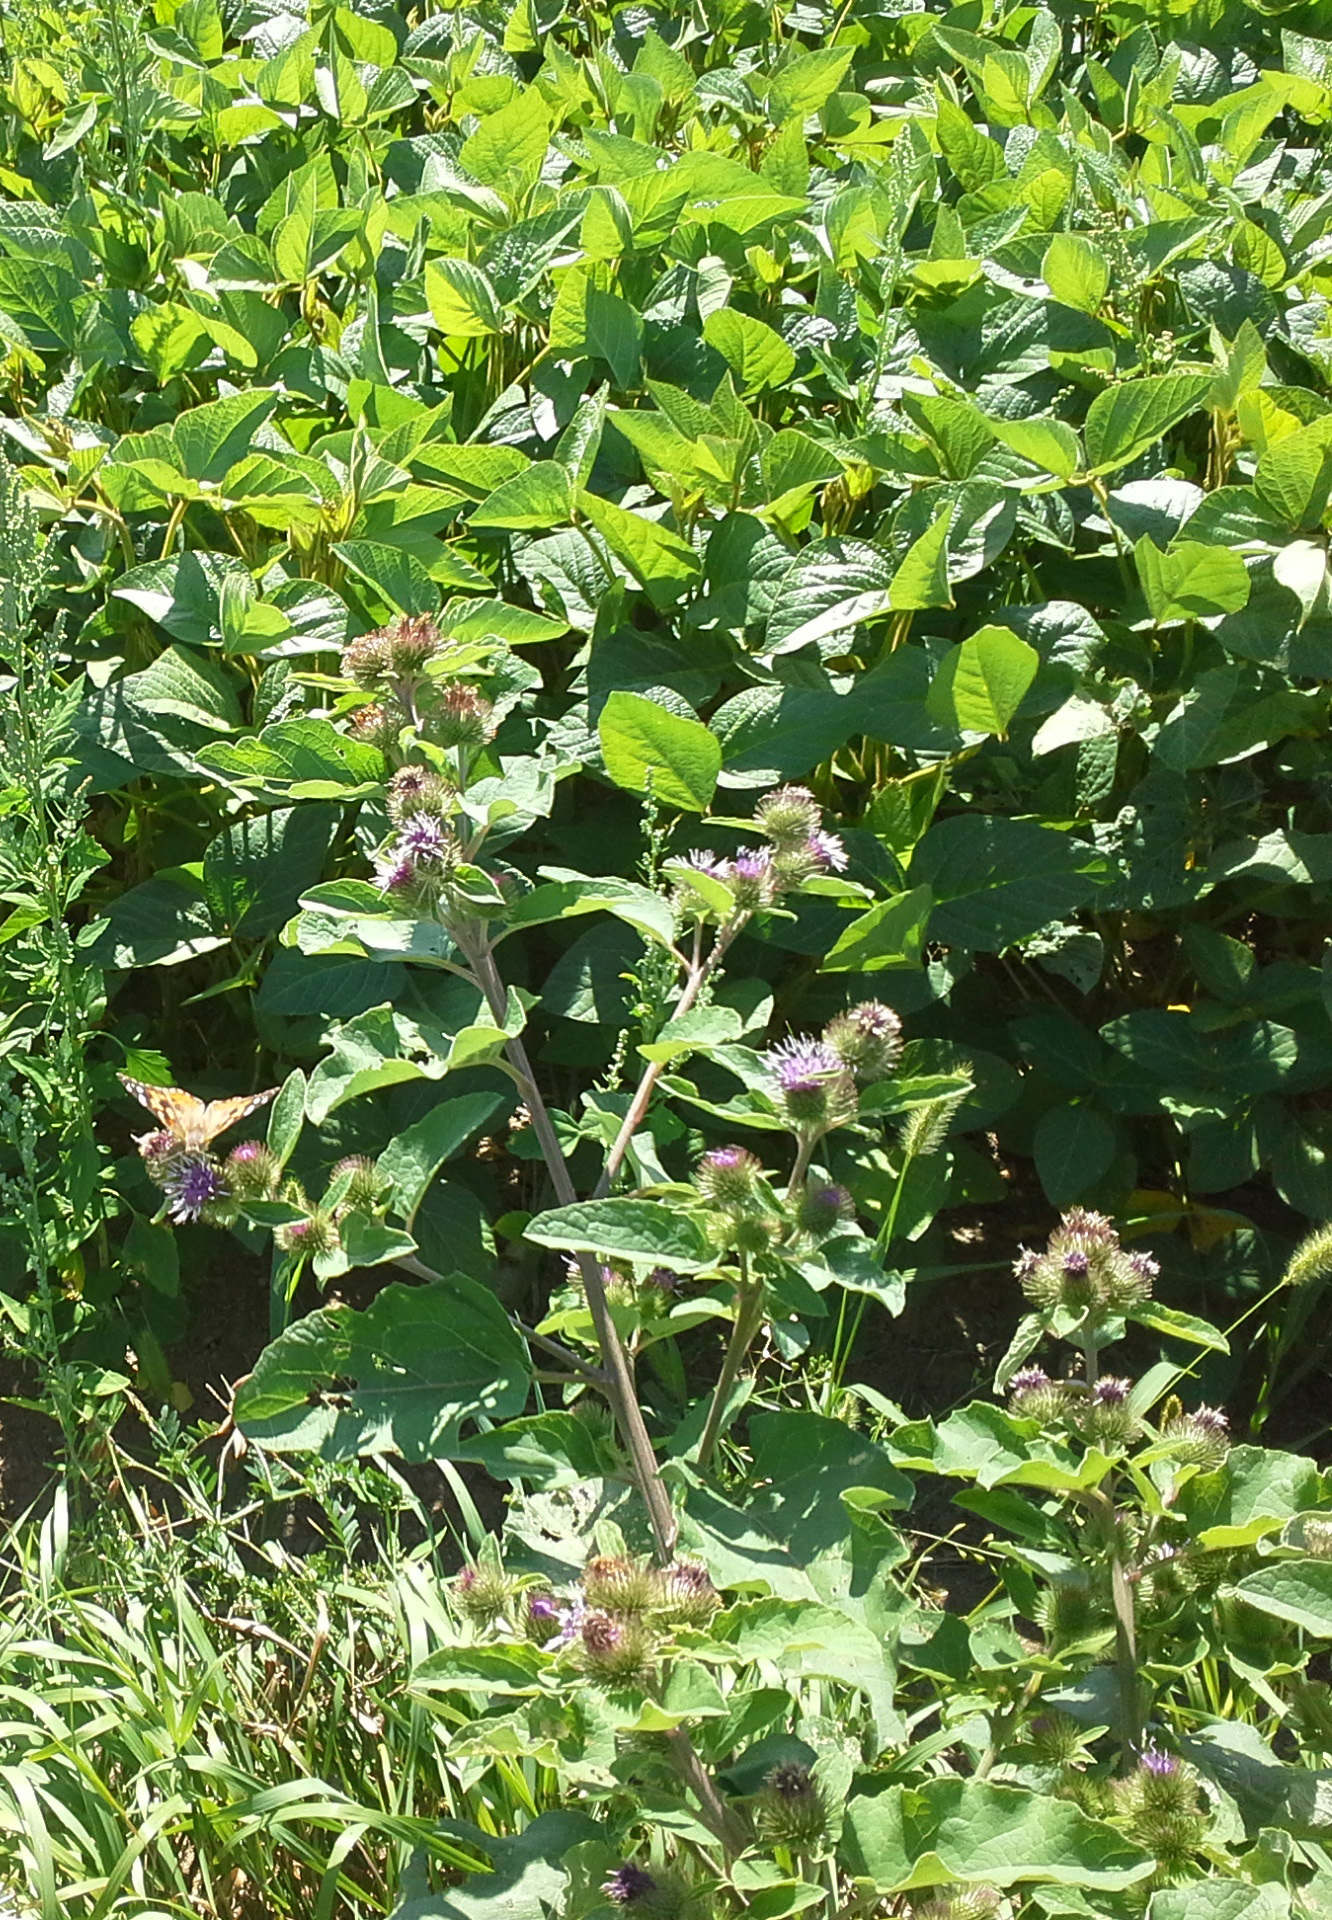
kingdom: Plantae
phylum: Tracheophyta
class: Magnoliopsida
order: Asterales
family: Asteraceae
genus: Arctium
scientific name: Arctium minus
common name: Lesser burdock
